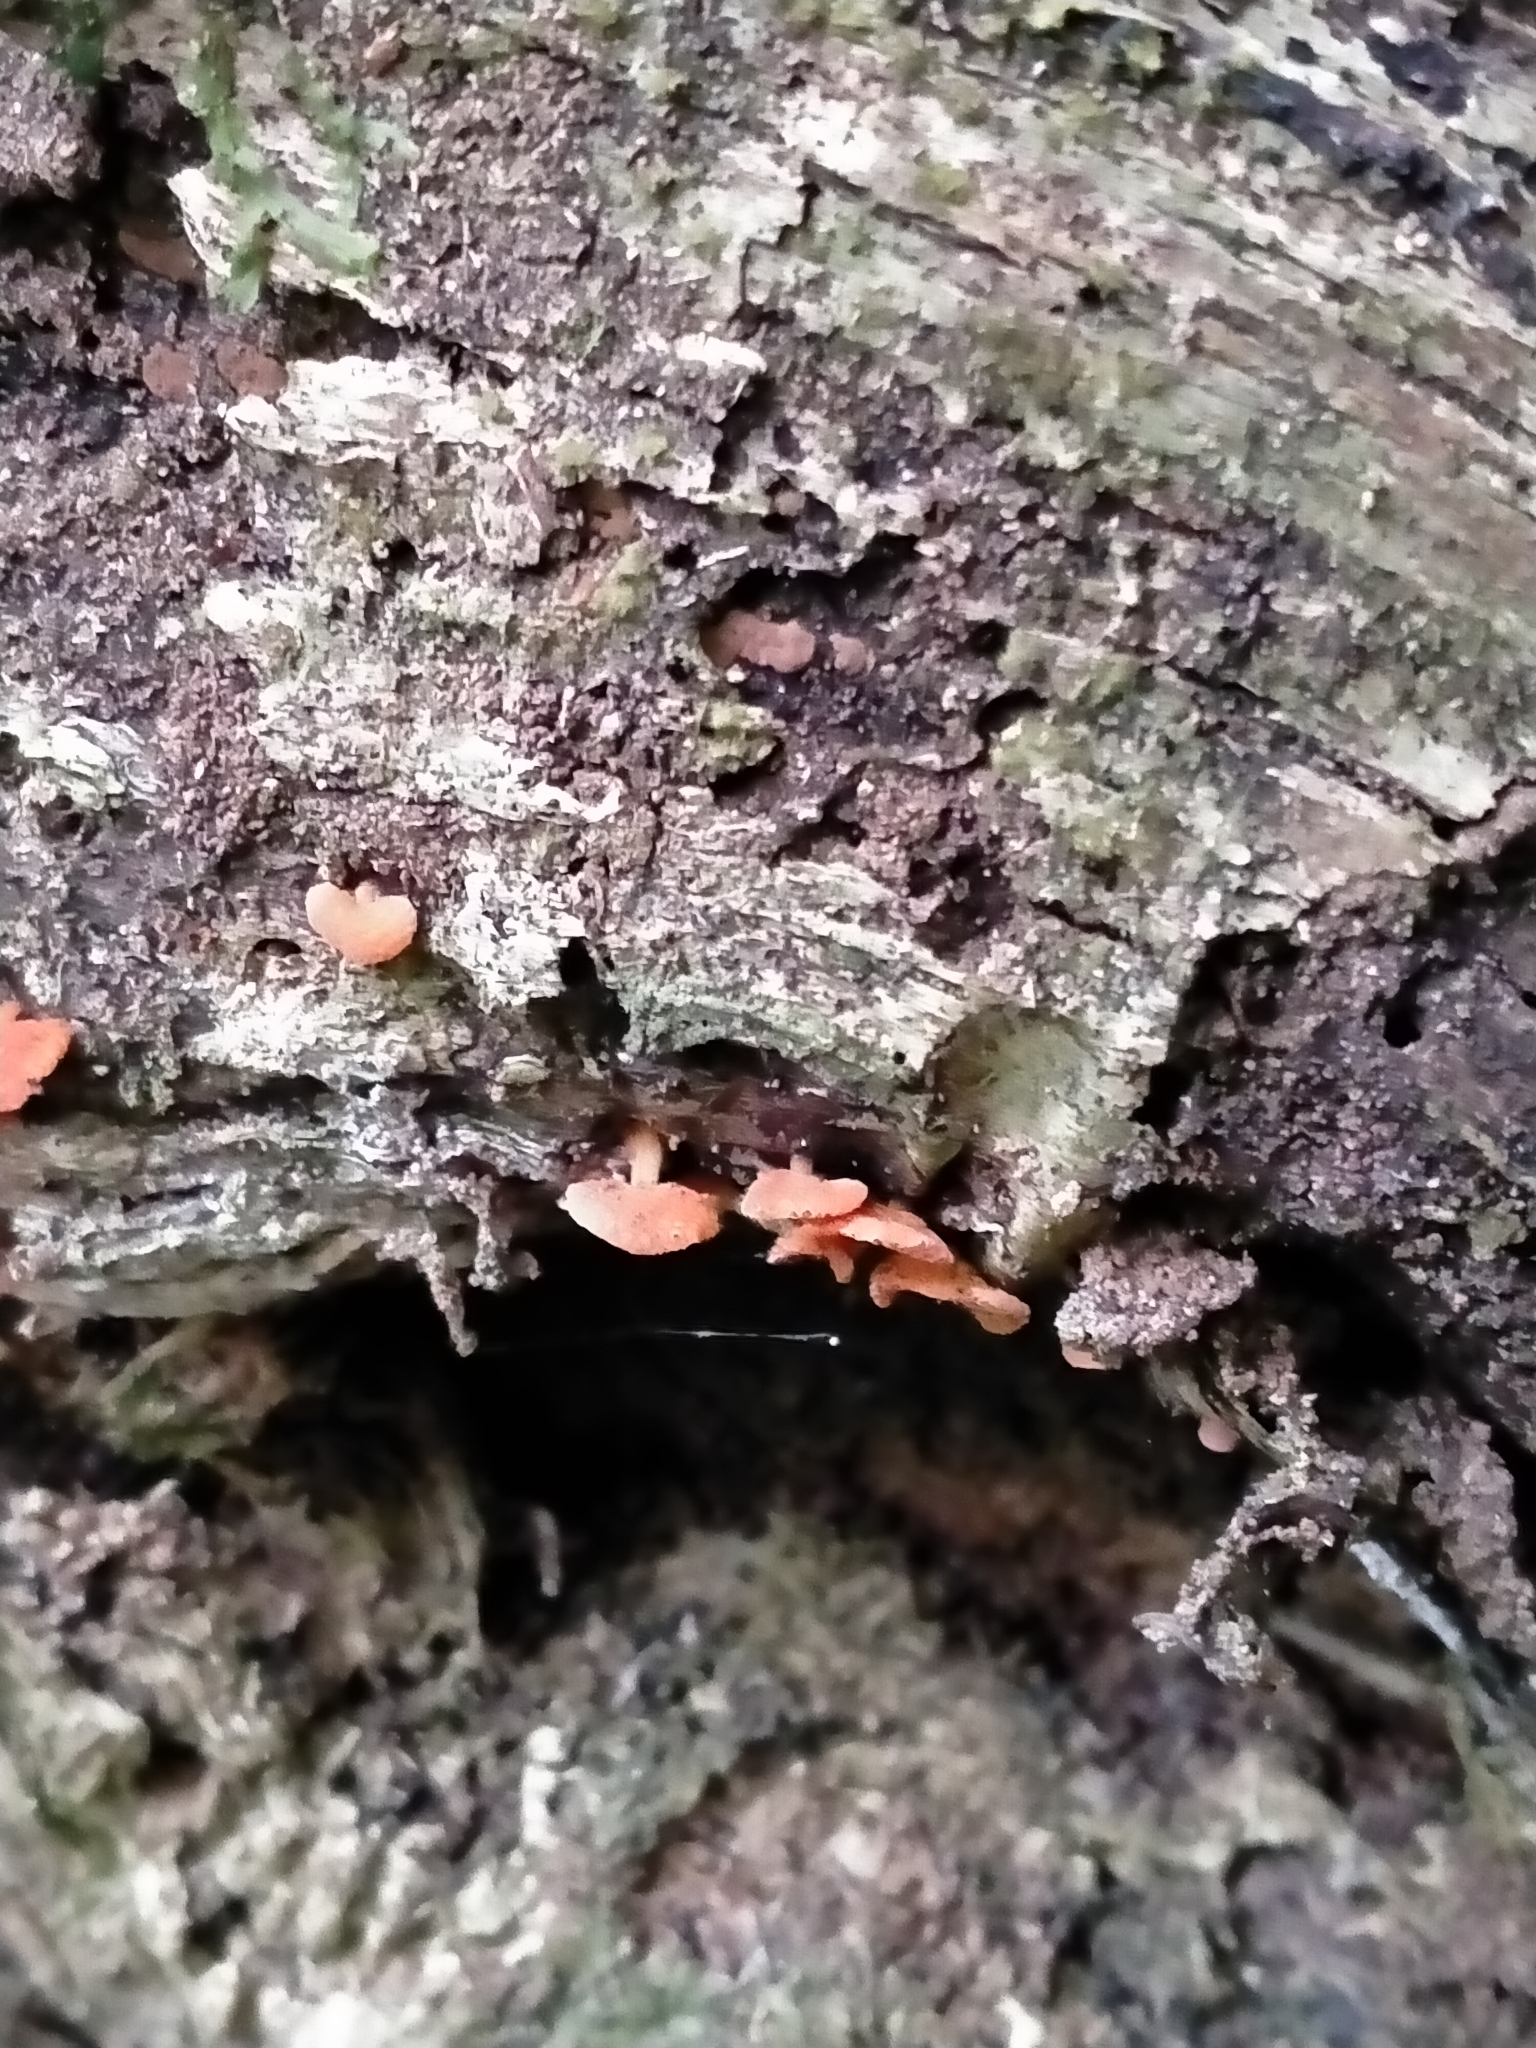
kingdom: Fungi
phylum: Basidiomycota
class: Agaricomycetes
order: Agaricales
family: Mycenaceae
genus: Favolaschia
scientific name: Favolaschia claudopus
